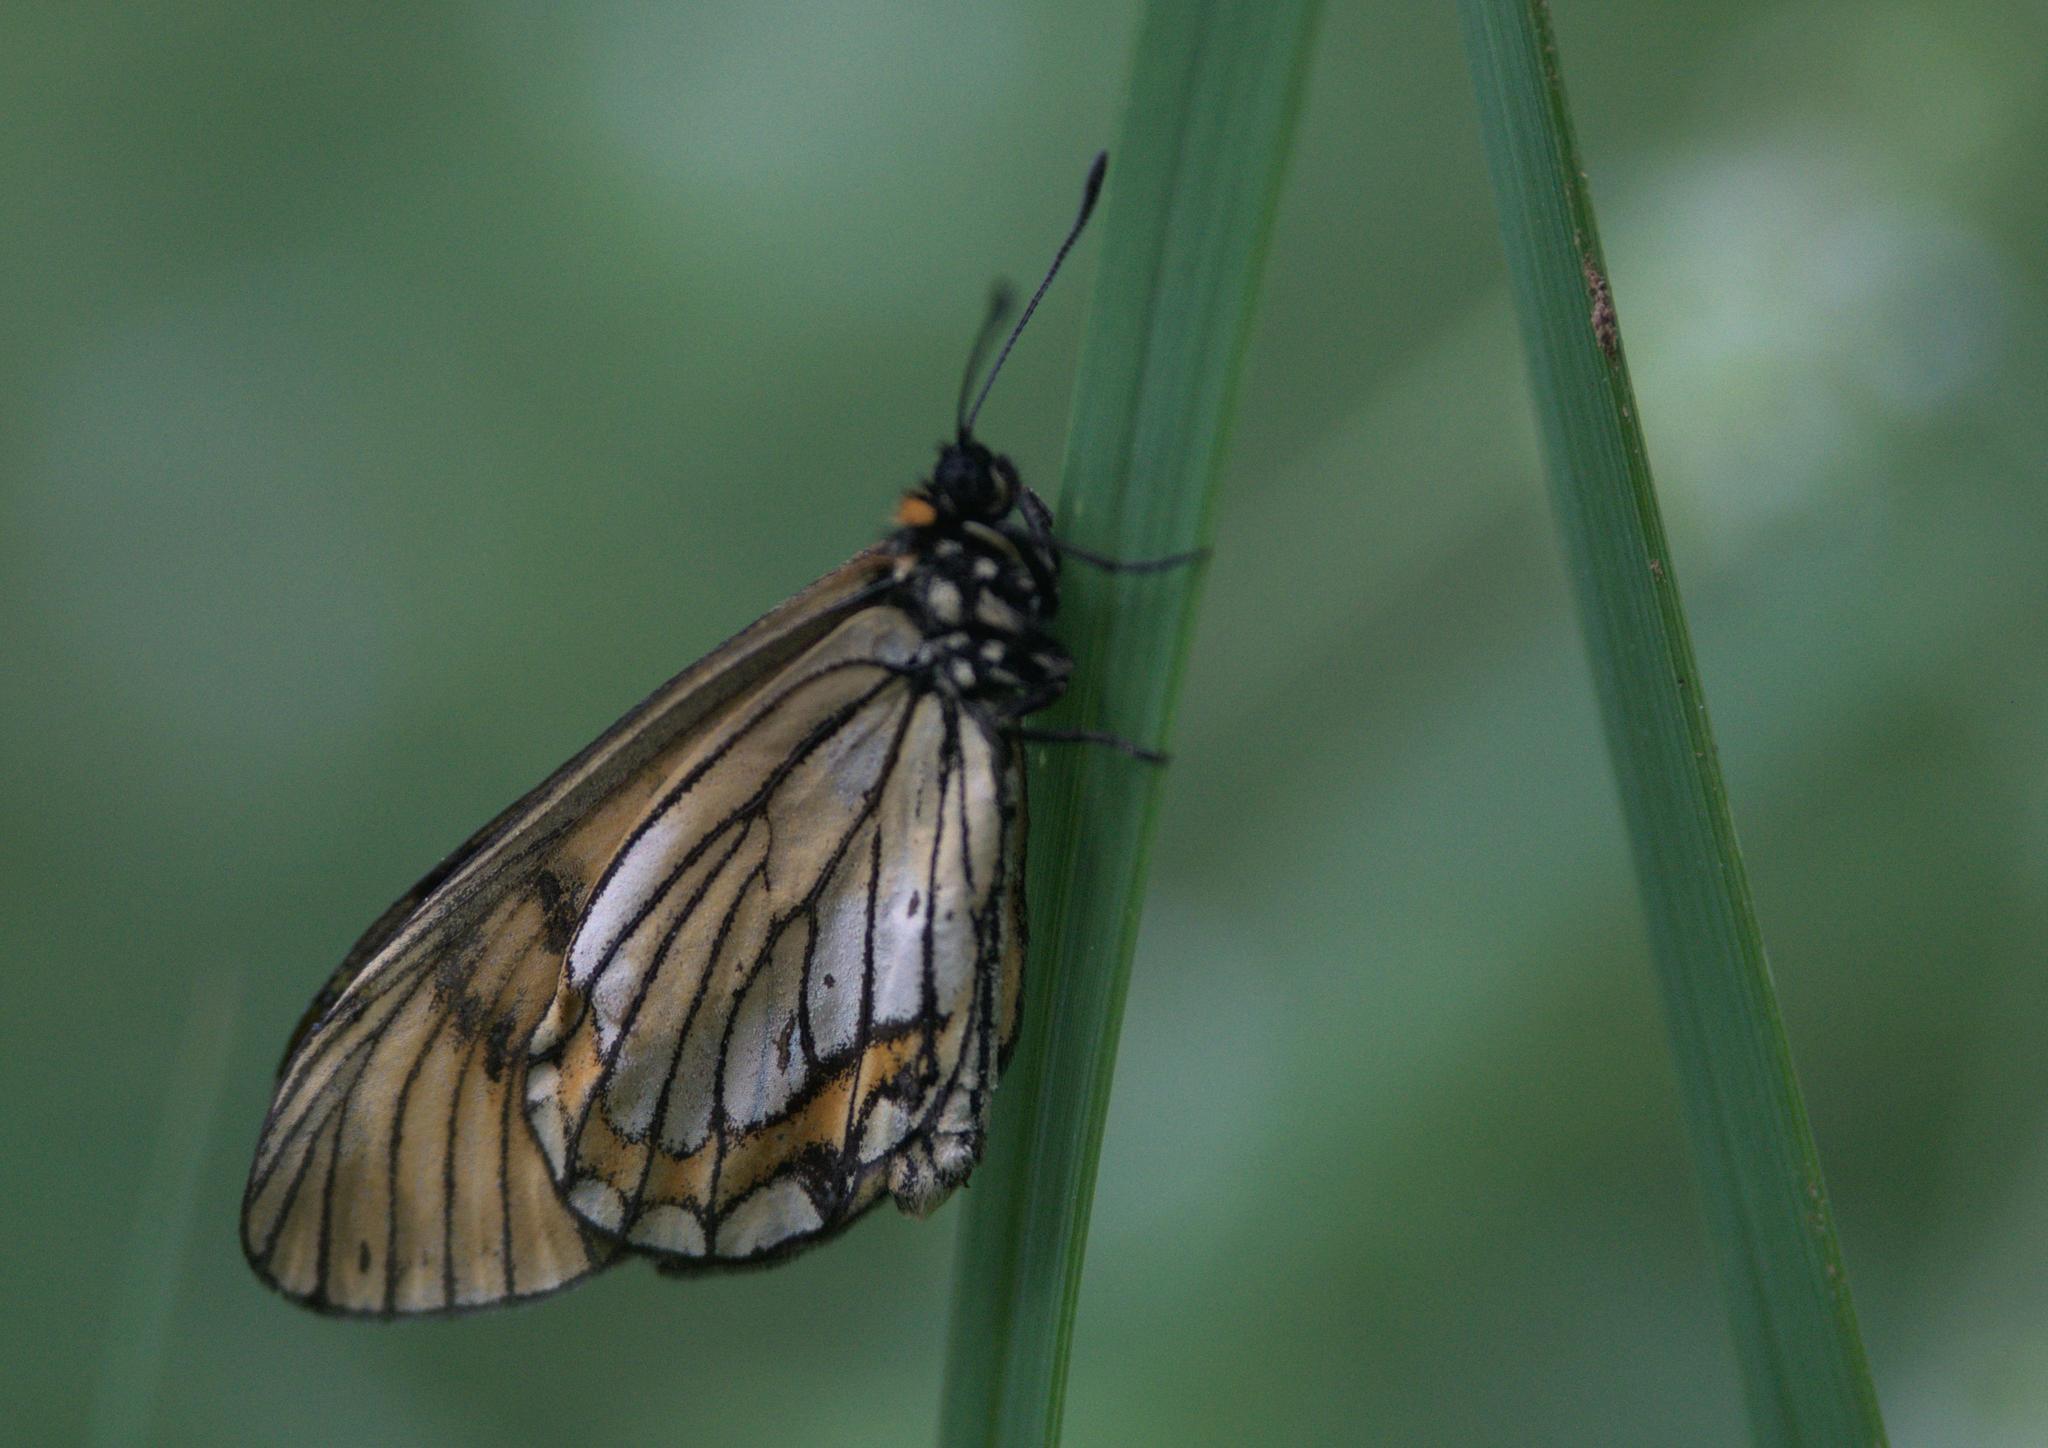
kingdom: Animalia
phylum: Arthropoda
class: Insecta
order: Lepidoptera
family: Nymphalidae
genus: Acraea
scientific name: Acraea Telchinia issoria
